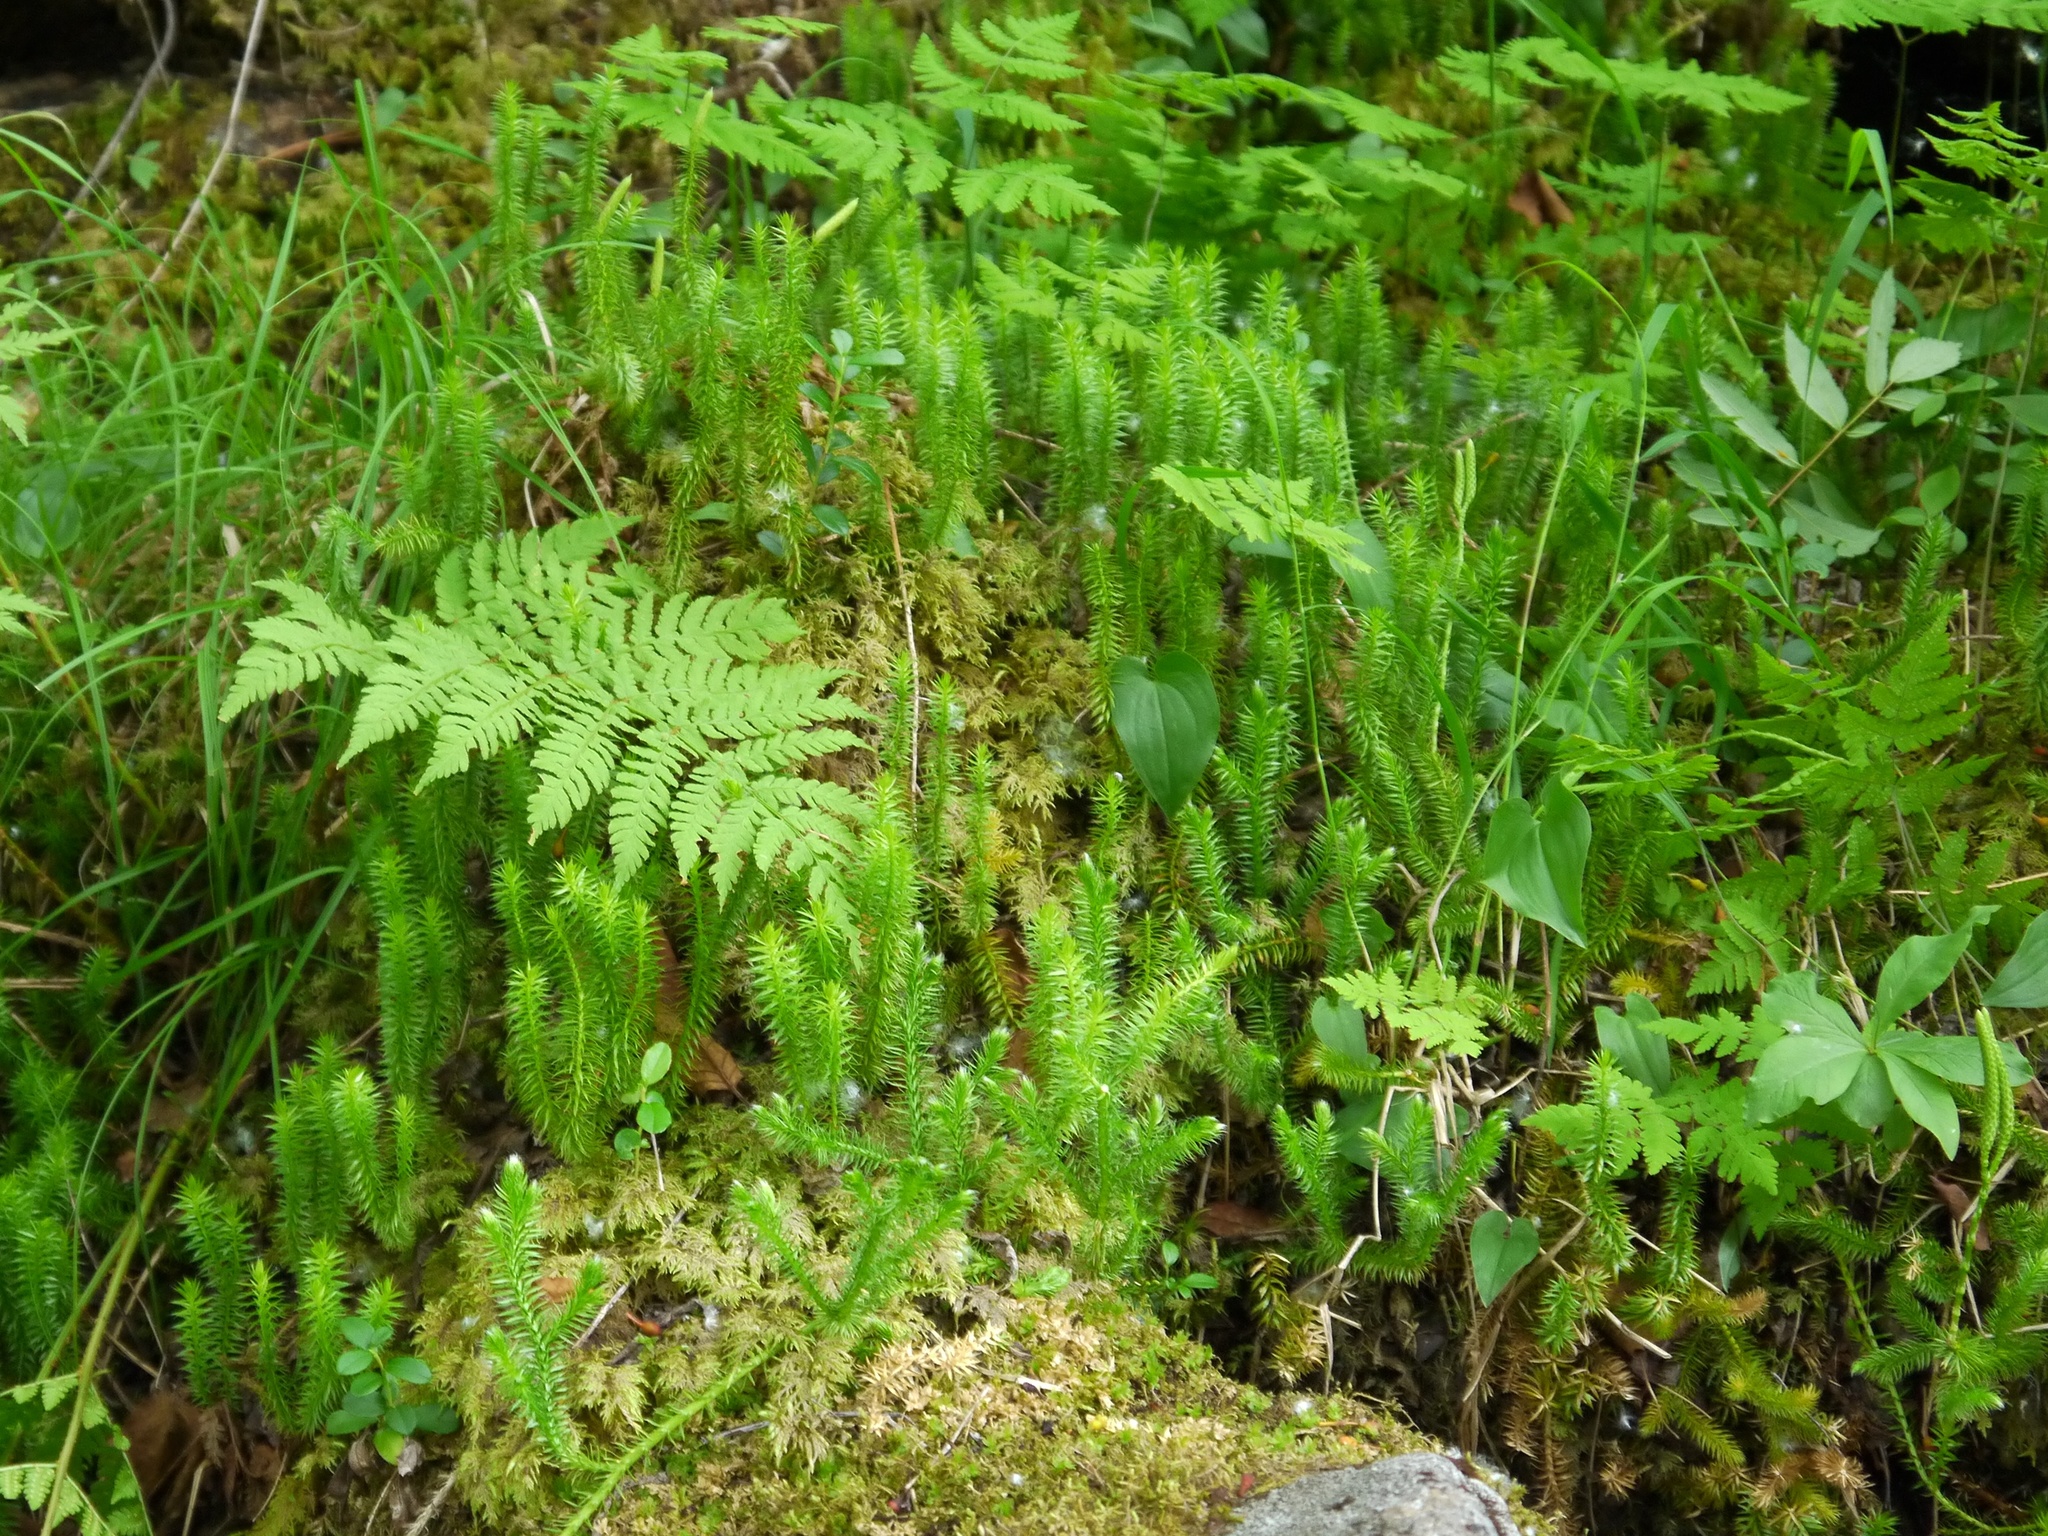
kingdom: Plantae
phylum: Tracheophyta
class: Lycopodiopsida
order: Lycopodiales
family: Lycopodiaceae
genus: Lycopodium
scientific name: Lycopodium clavatum
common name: Stag's-horn clubmoss
